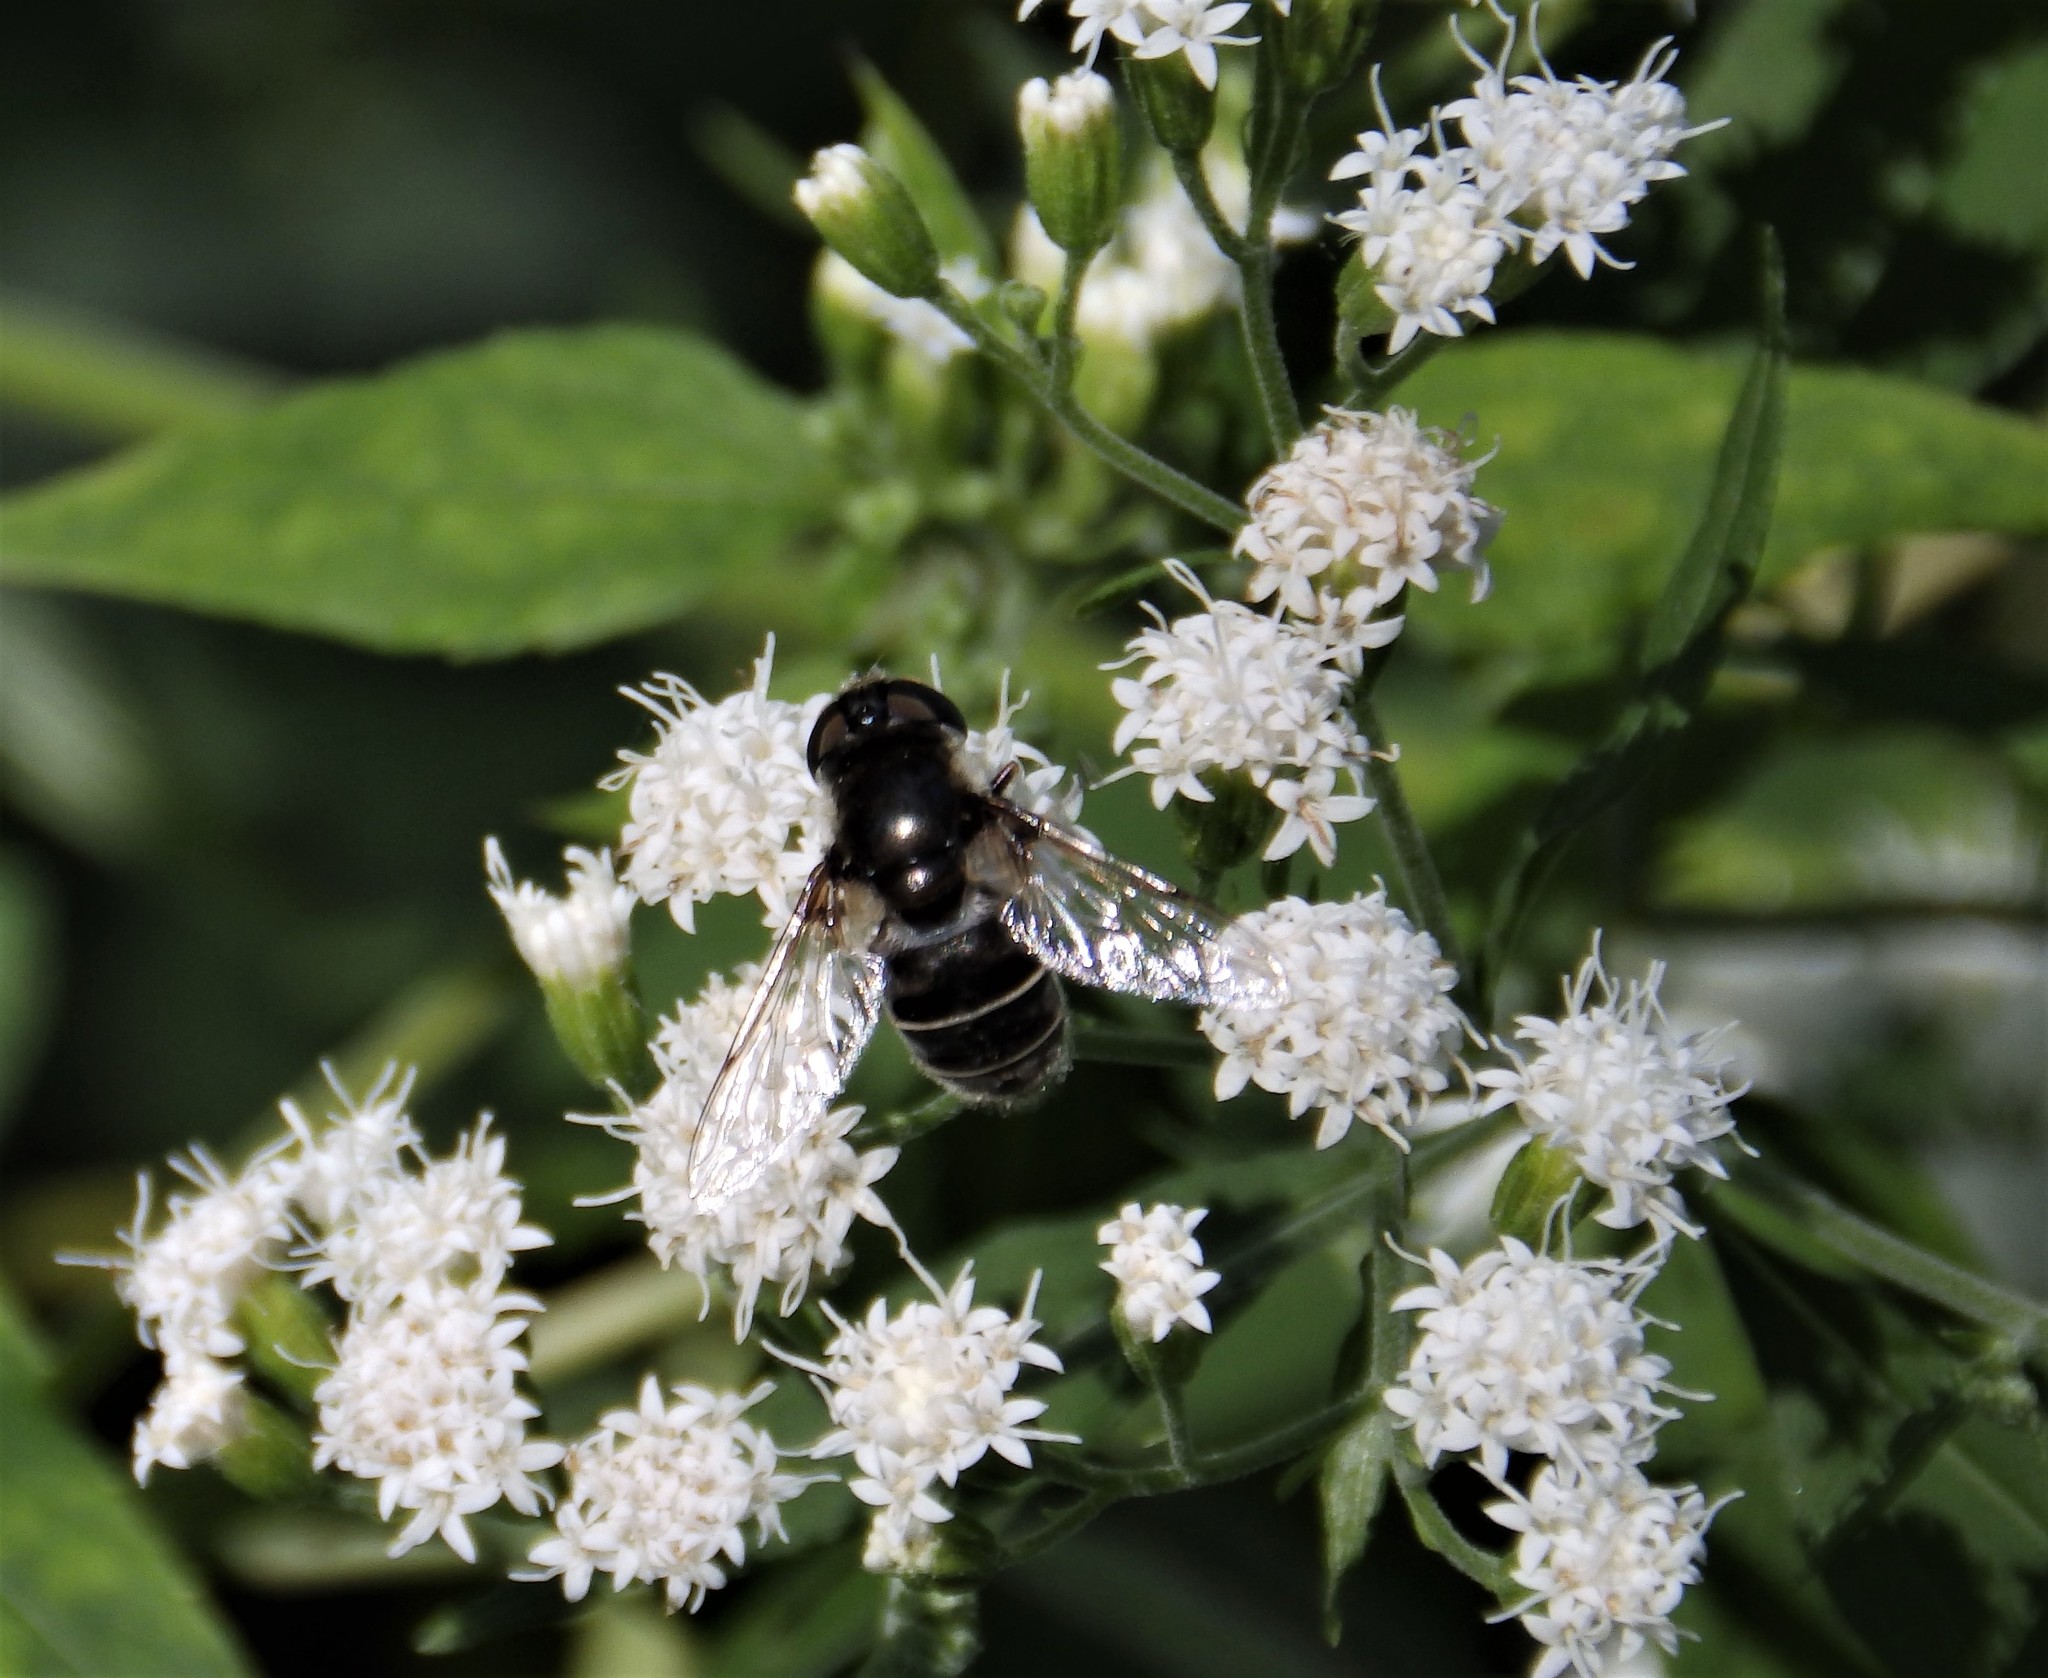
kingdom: Animalia
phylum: Arthropoda
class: Insecta
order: Diptera
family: Syrphidae
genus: Eristalis
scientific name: Eristalis dimidiata
